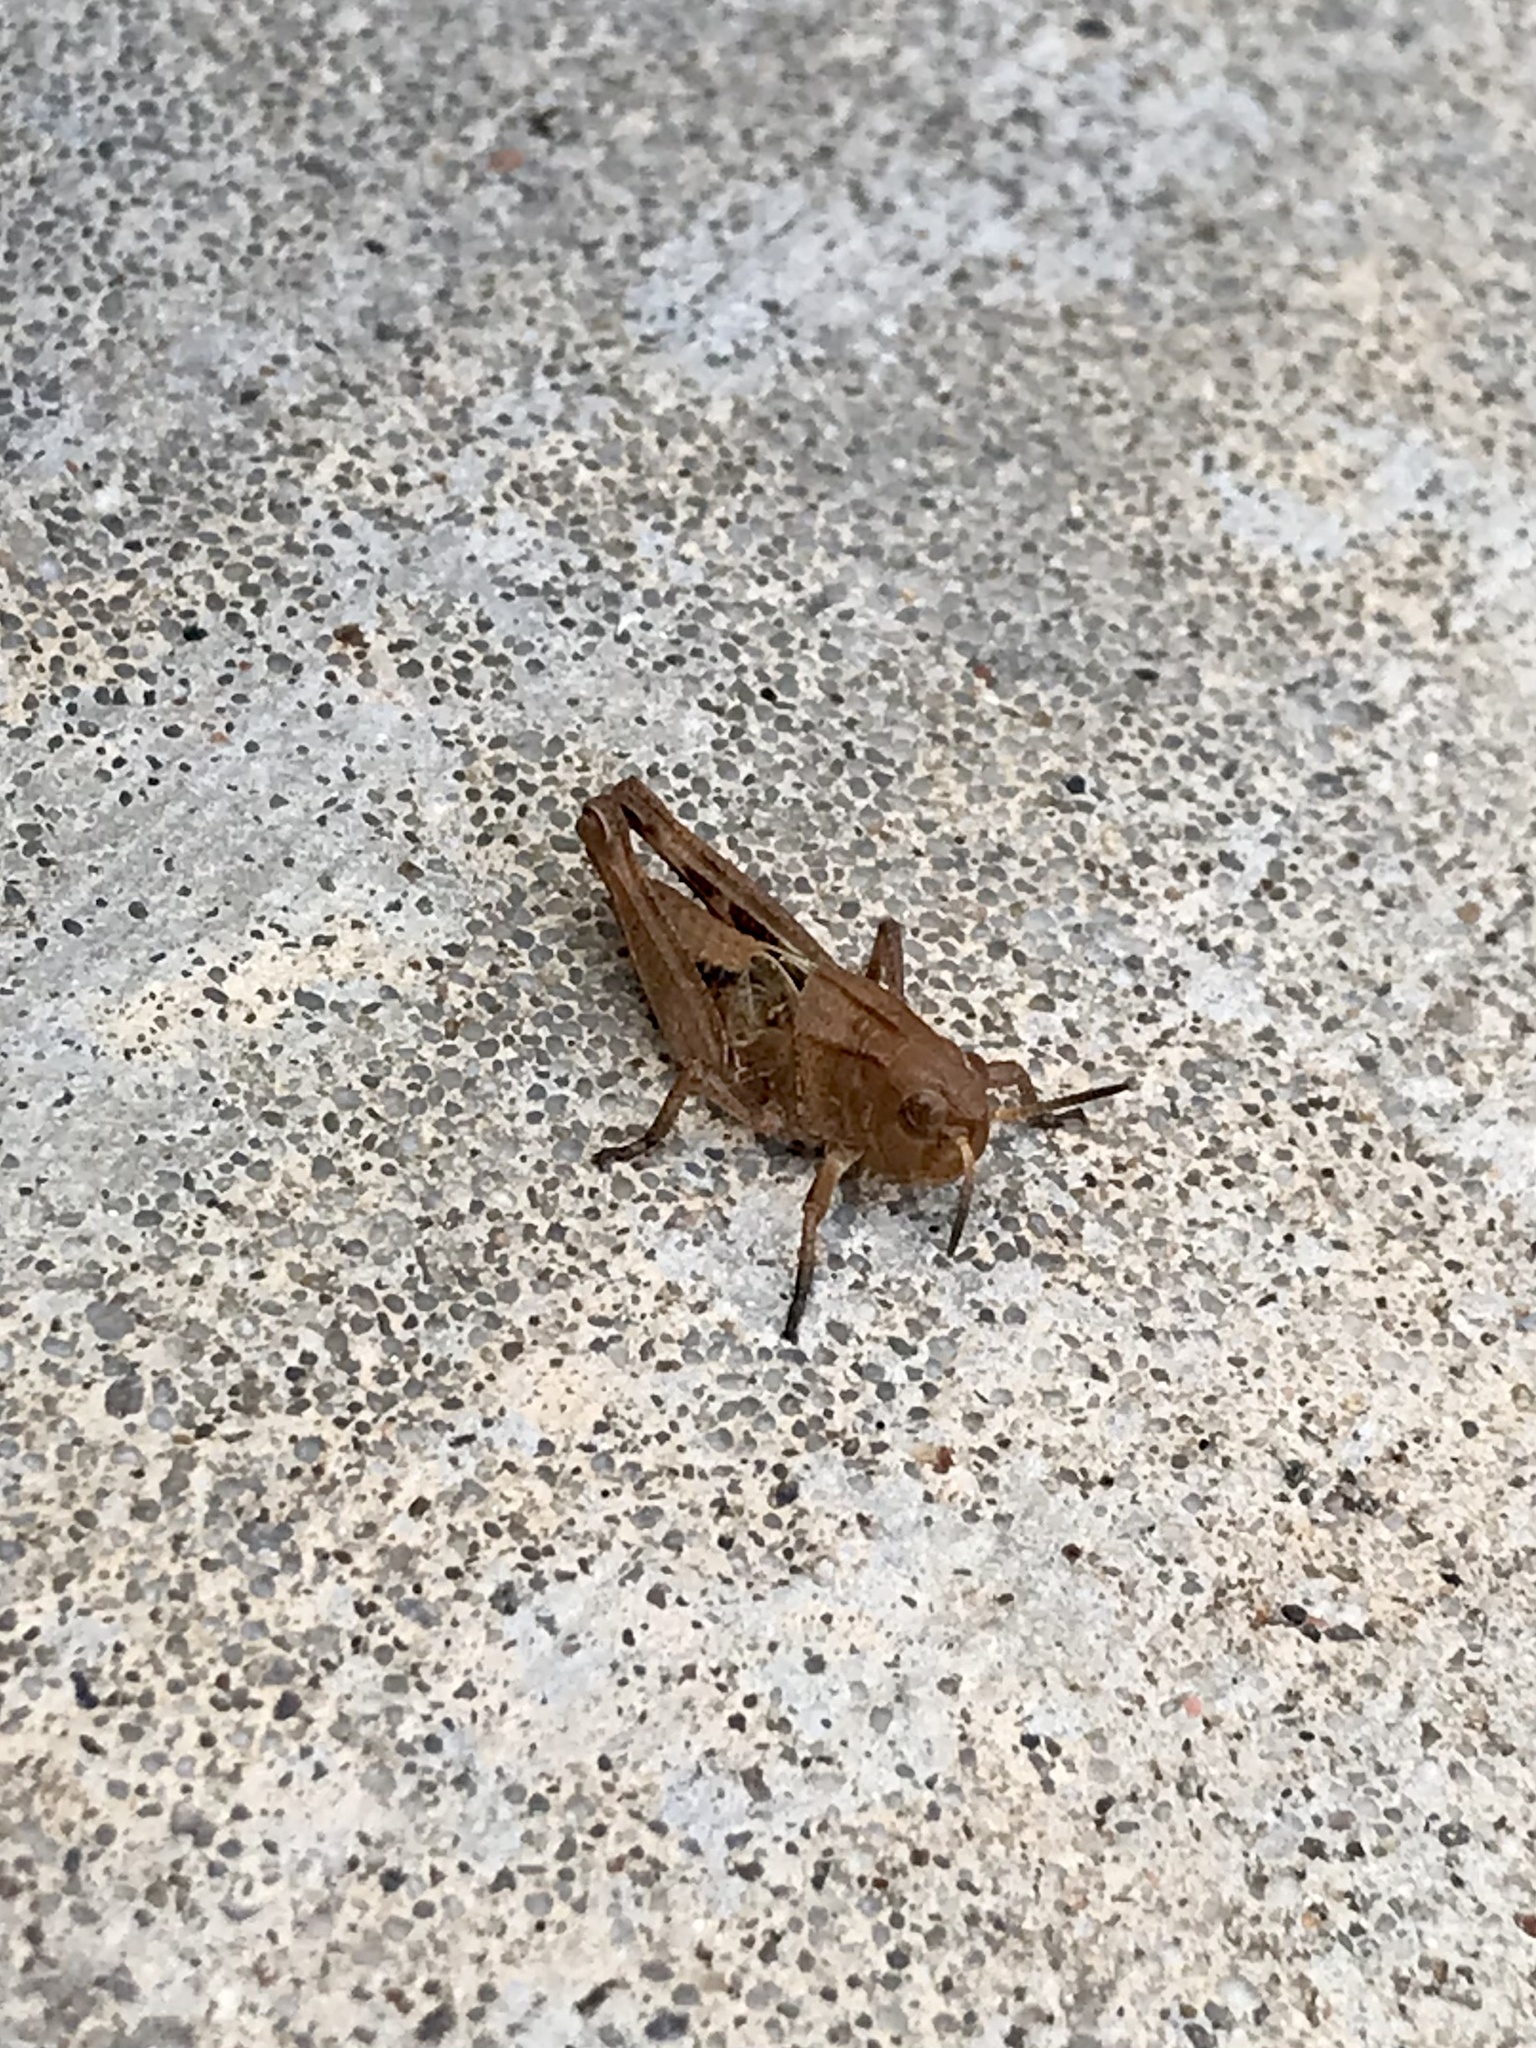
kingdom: Animalia
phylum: Arthropoda
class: Insecta
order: Orthoptera
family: Acrididae
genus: Camnula
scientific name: Camnula pellucida
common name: Clear-winged grasshopper
